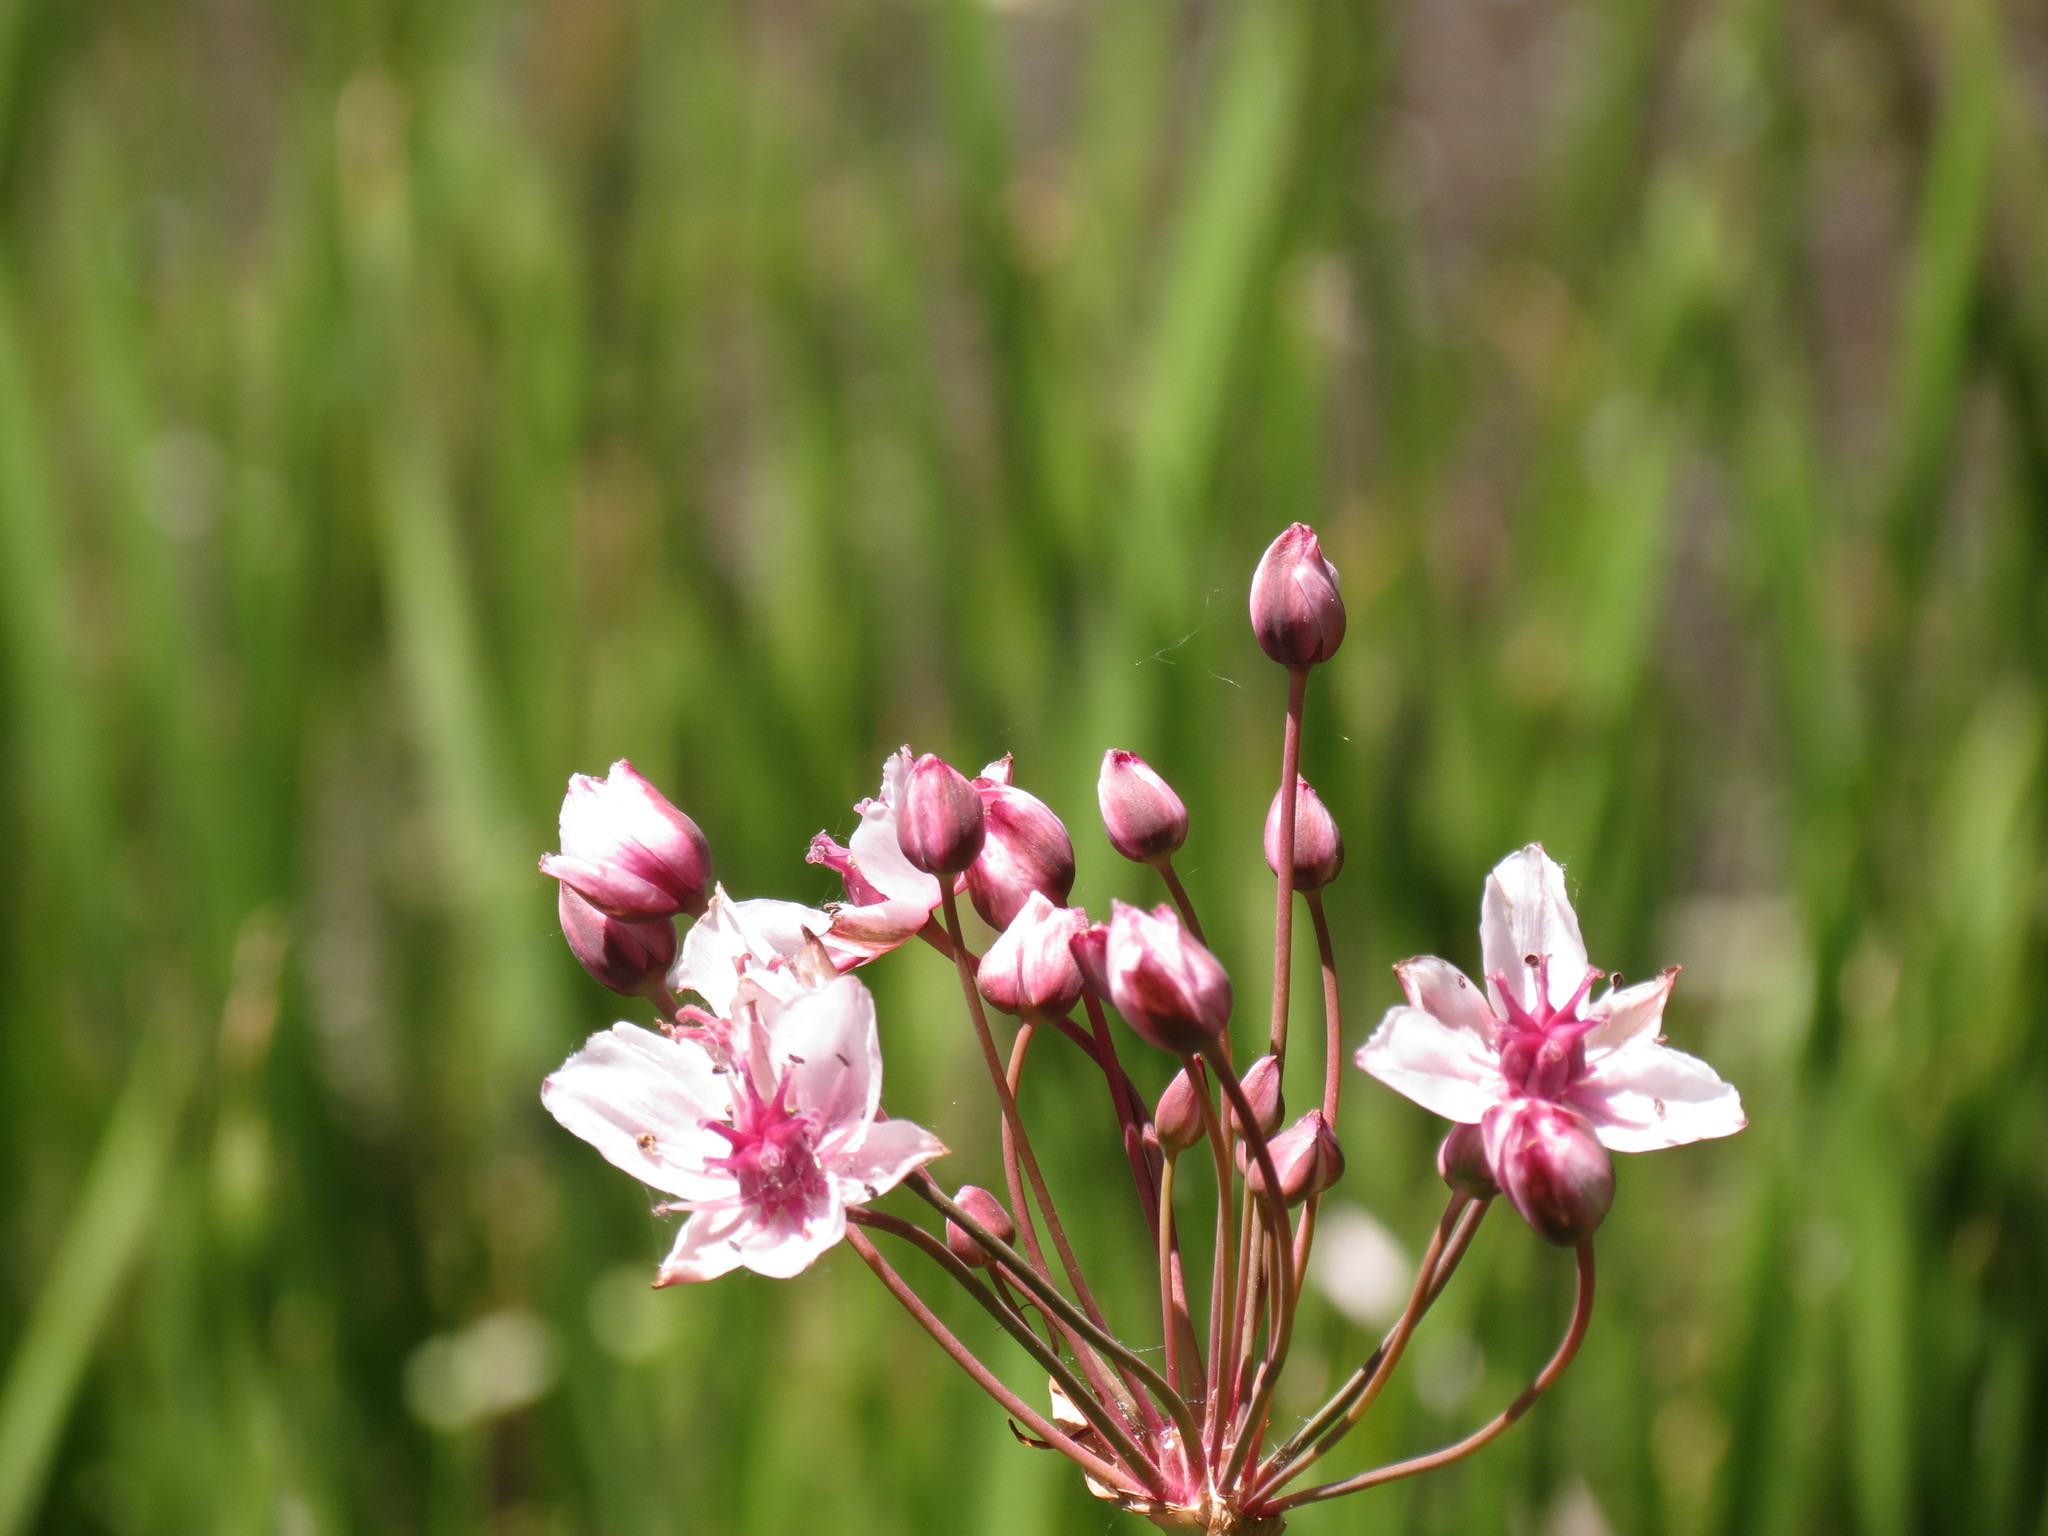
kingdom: Plantae
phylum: Tracheophyta
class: Liliopsida
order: Alismatales
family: Butomaceae
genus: Butomus
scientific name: Butomus umbellatus
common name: Flowering-rush
